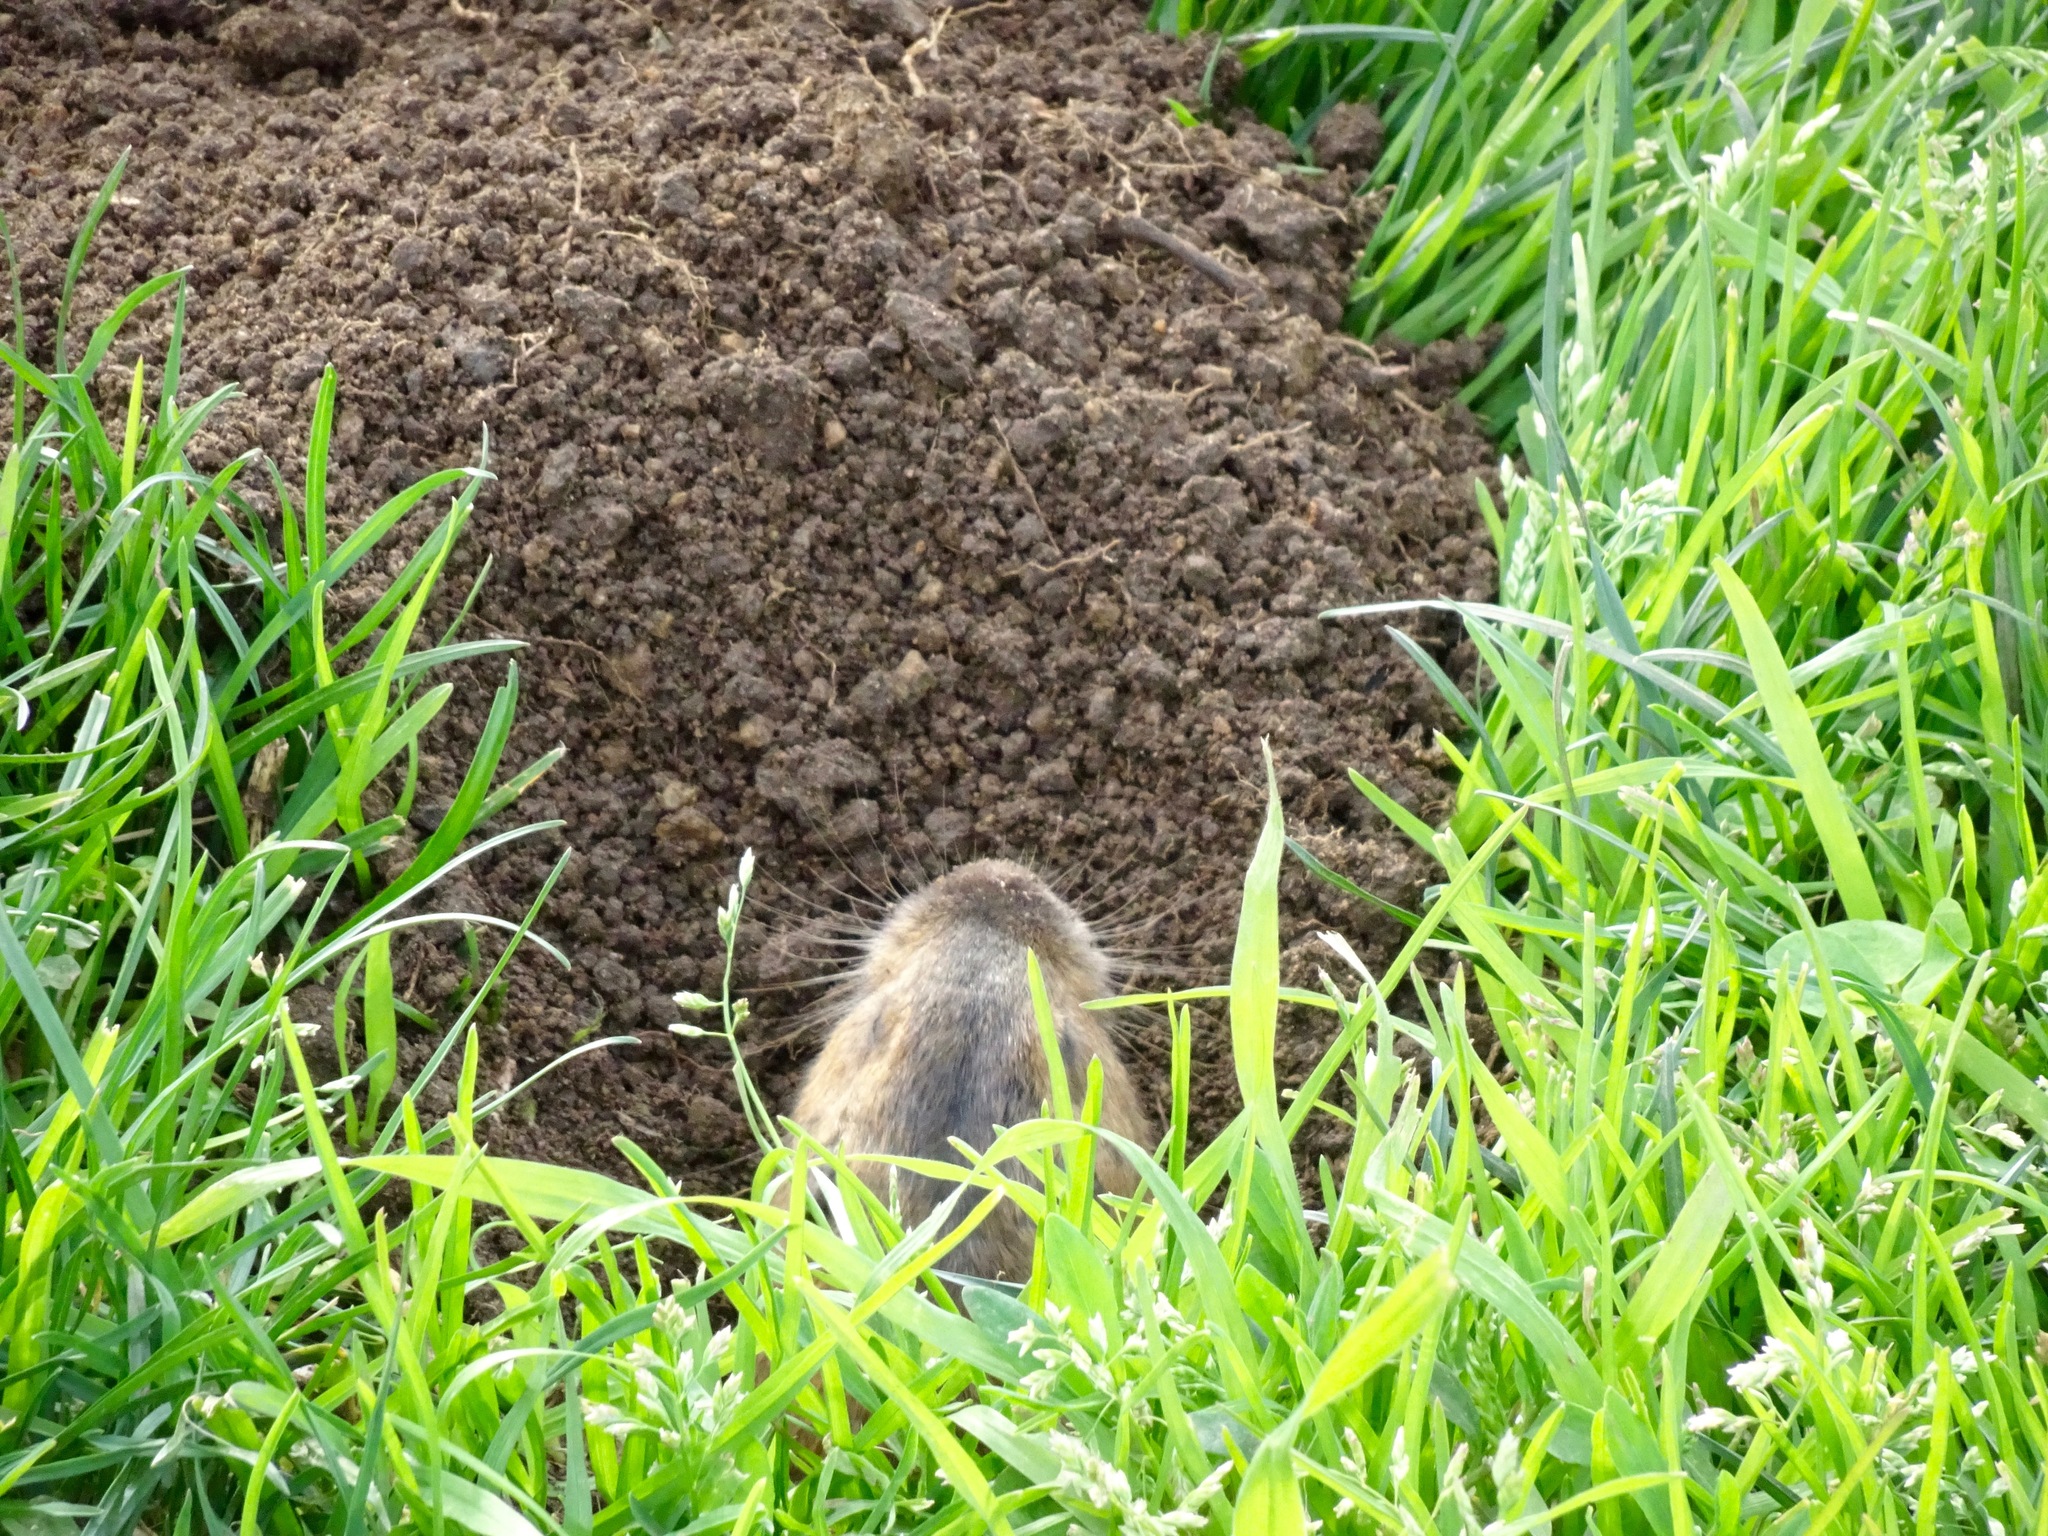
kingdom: Animalia
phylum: Chordata
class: Mammalia
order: Rodentia
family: Geomyidae
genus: Thomomys
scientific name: Thomomys bottae
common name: Botta's pocket gopher
